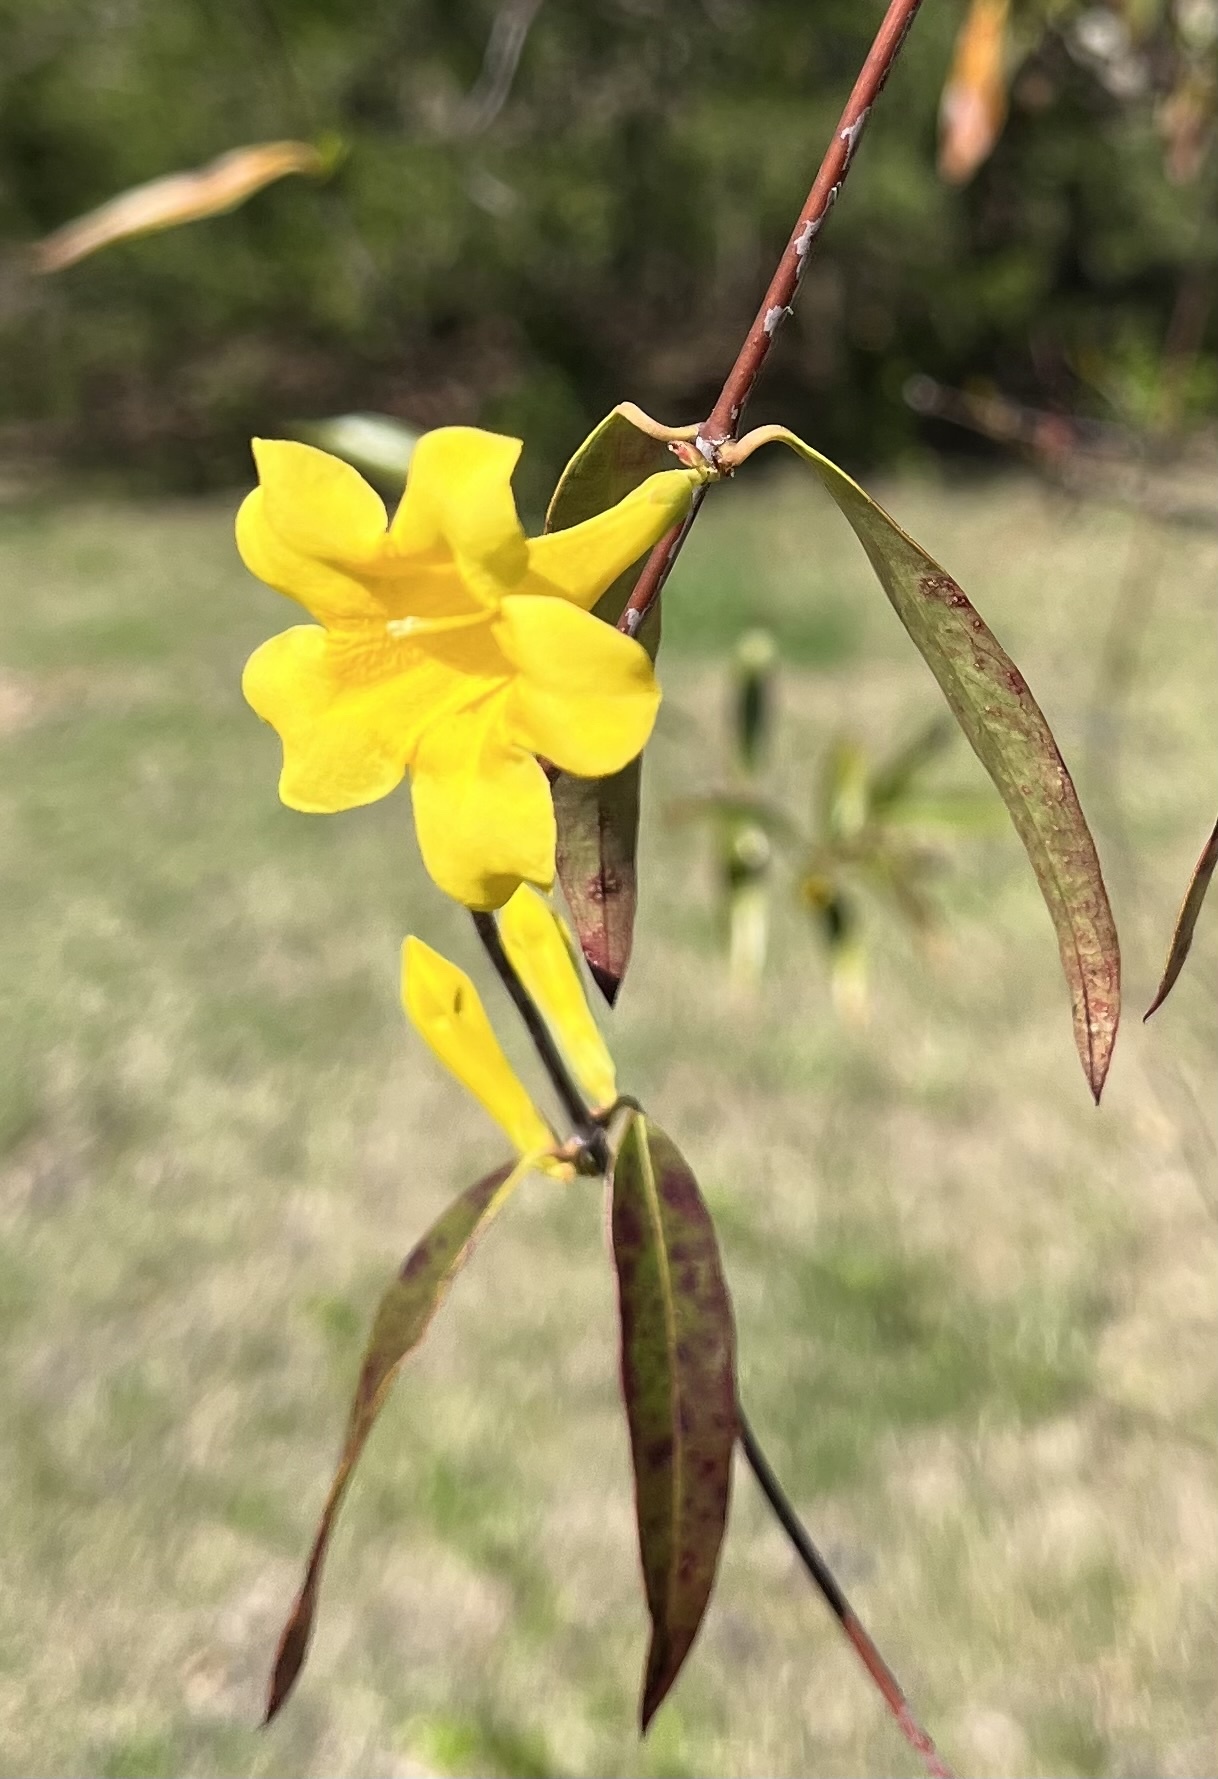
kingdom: Plantae
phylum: Tracheophyta
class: Magnoliopsida
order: Gentianales
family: Gelsemiaceae
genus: Gelsemium
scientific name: Gelsemium sempervirens
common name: Carolina-jasmine
